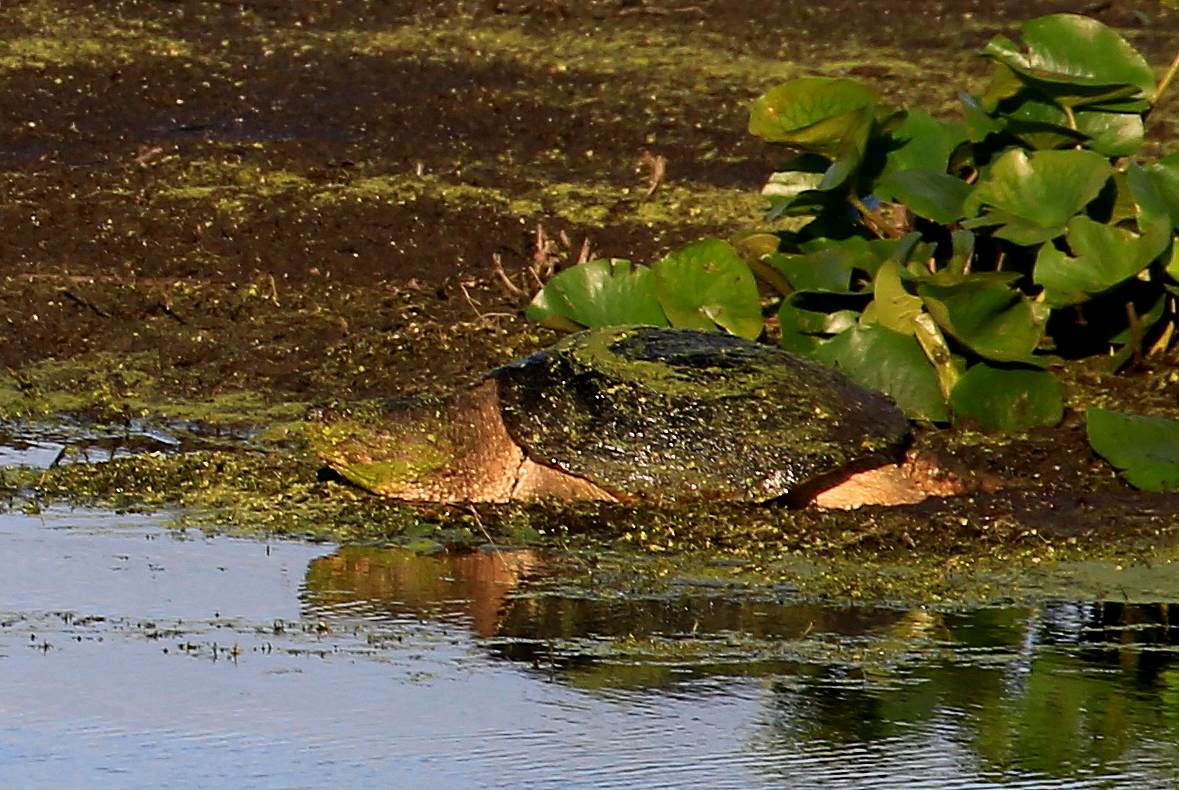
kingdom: Animalia
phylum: Chordata
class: Testudines
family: Chelydridae
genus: Chelydra
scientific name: Chelydra serpentina
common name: Common snapping turtle
